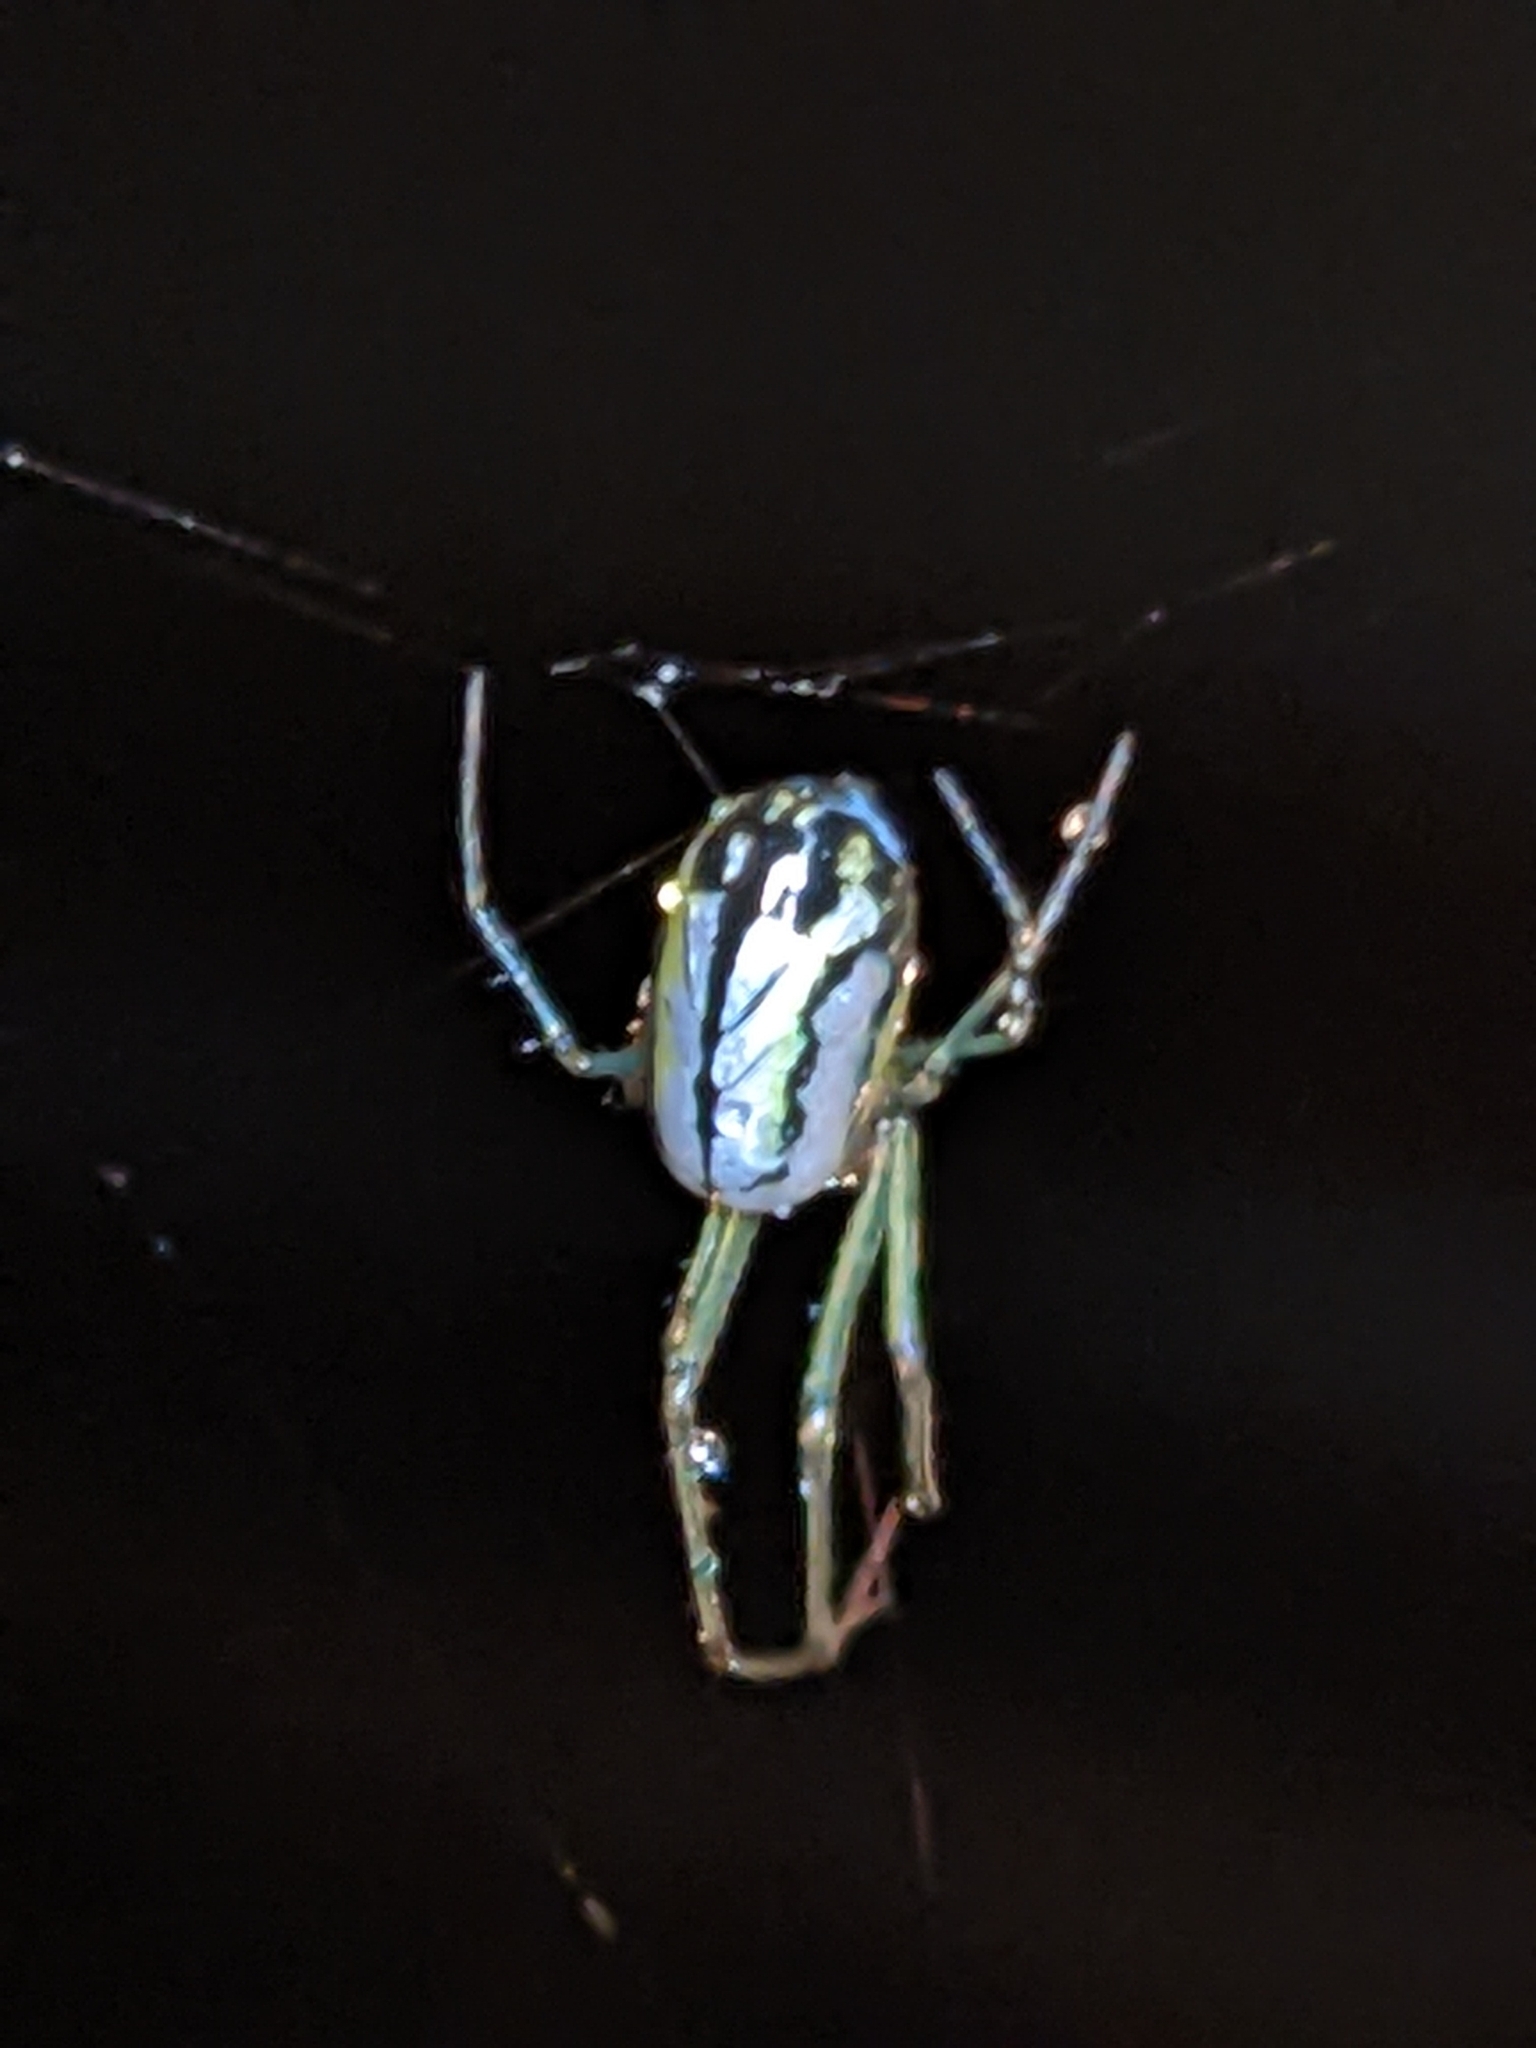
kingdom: Animalia
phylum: Arthropoda
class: Arachnida
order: Araneae
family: Tetragnathidae
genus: Leucauge
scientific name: Leucauge venusta
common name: Longjawed orb weavers
